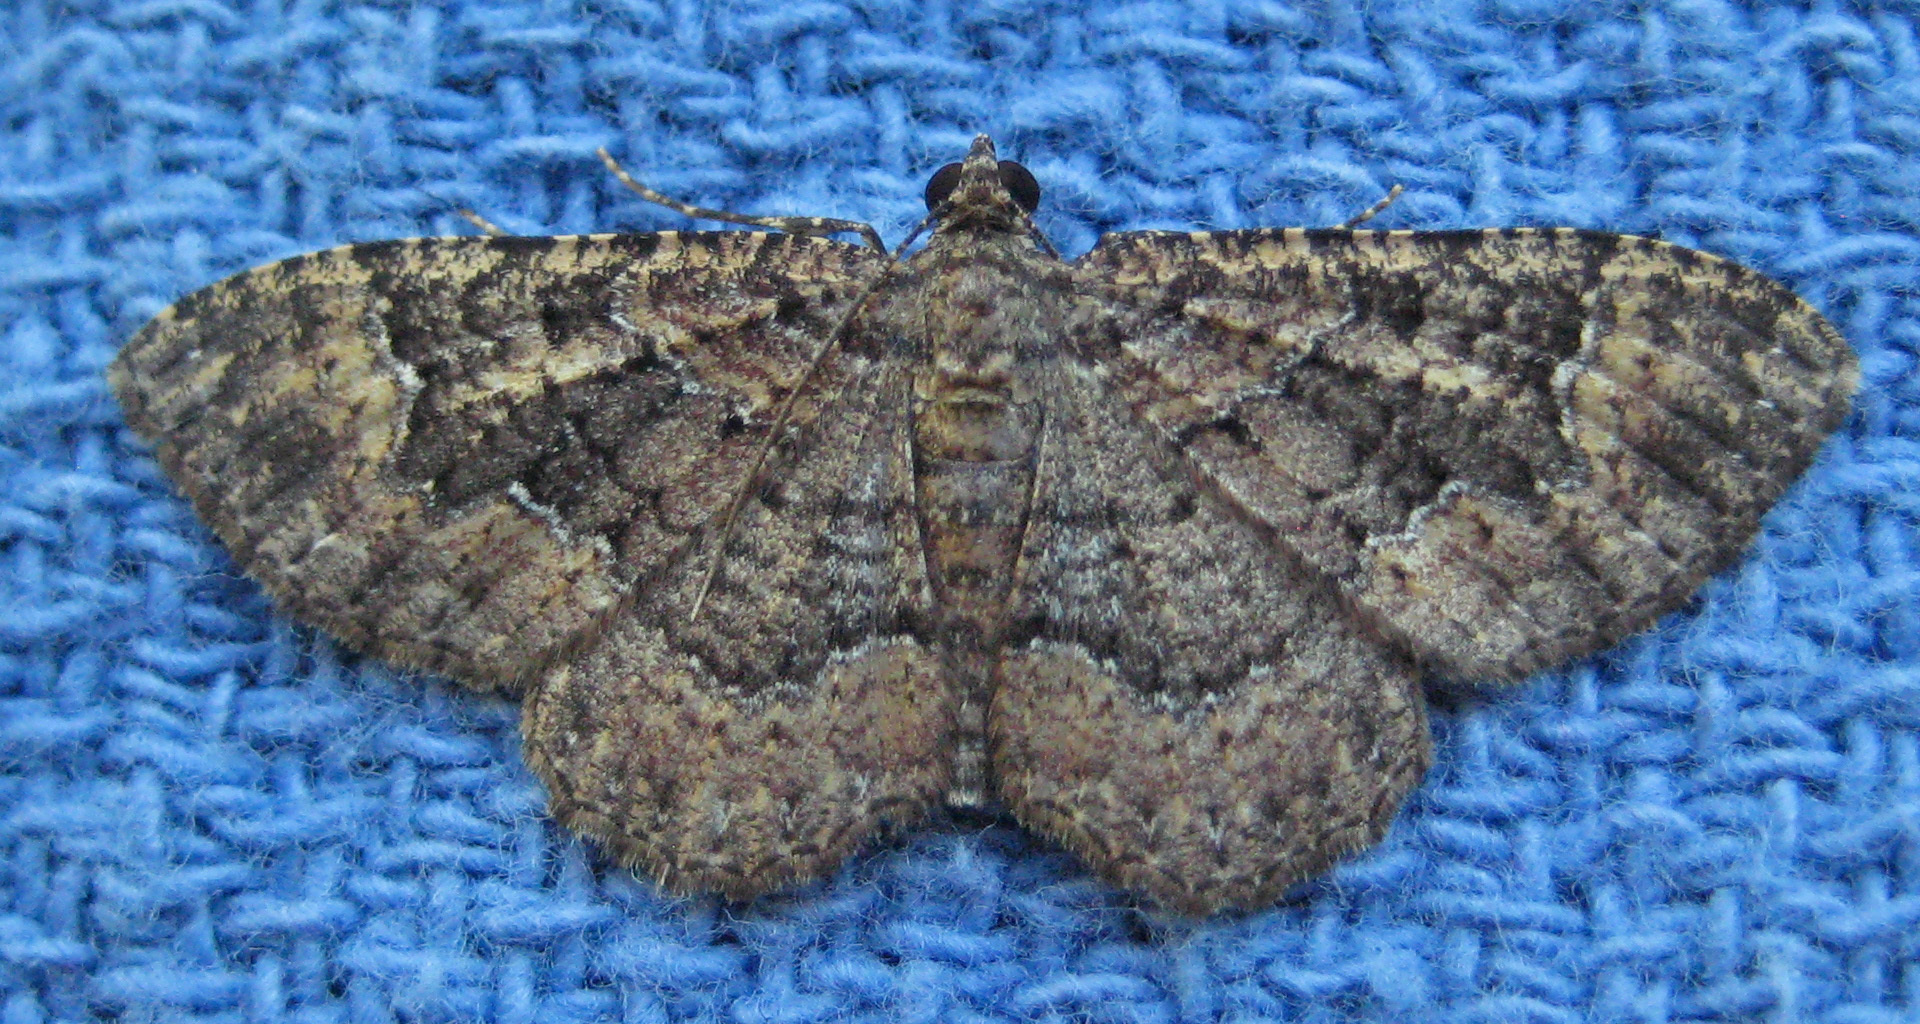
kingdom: Animalia
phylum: Arthropoda
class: Insecta
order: Lepidoptera
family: Geometridae
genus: Disclisioprocta
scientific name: Disclisioprocta stellata
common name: Somber carpet
